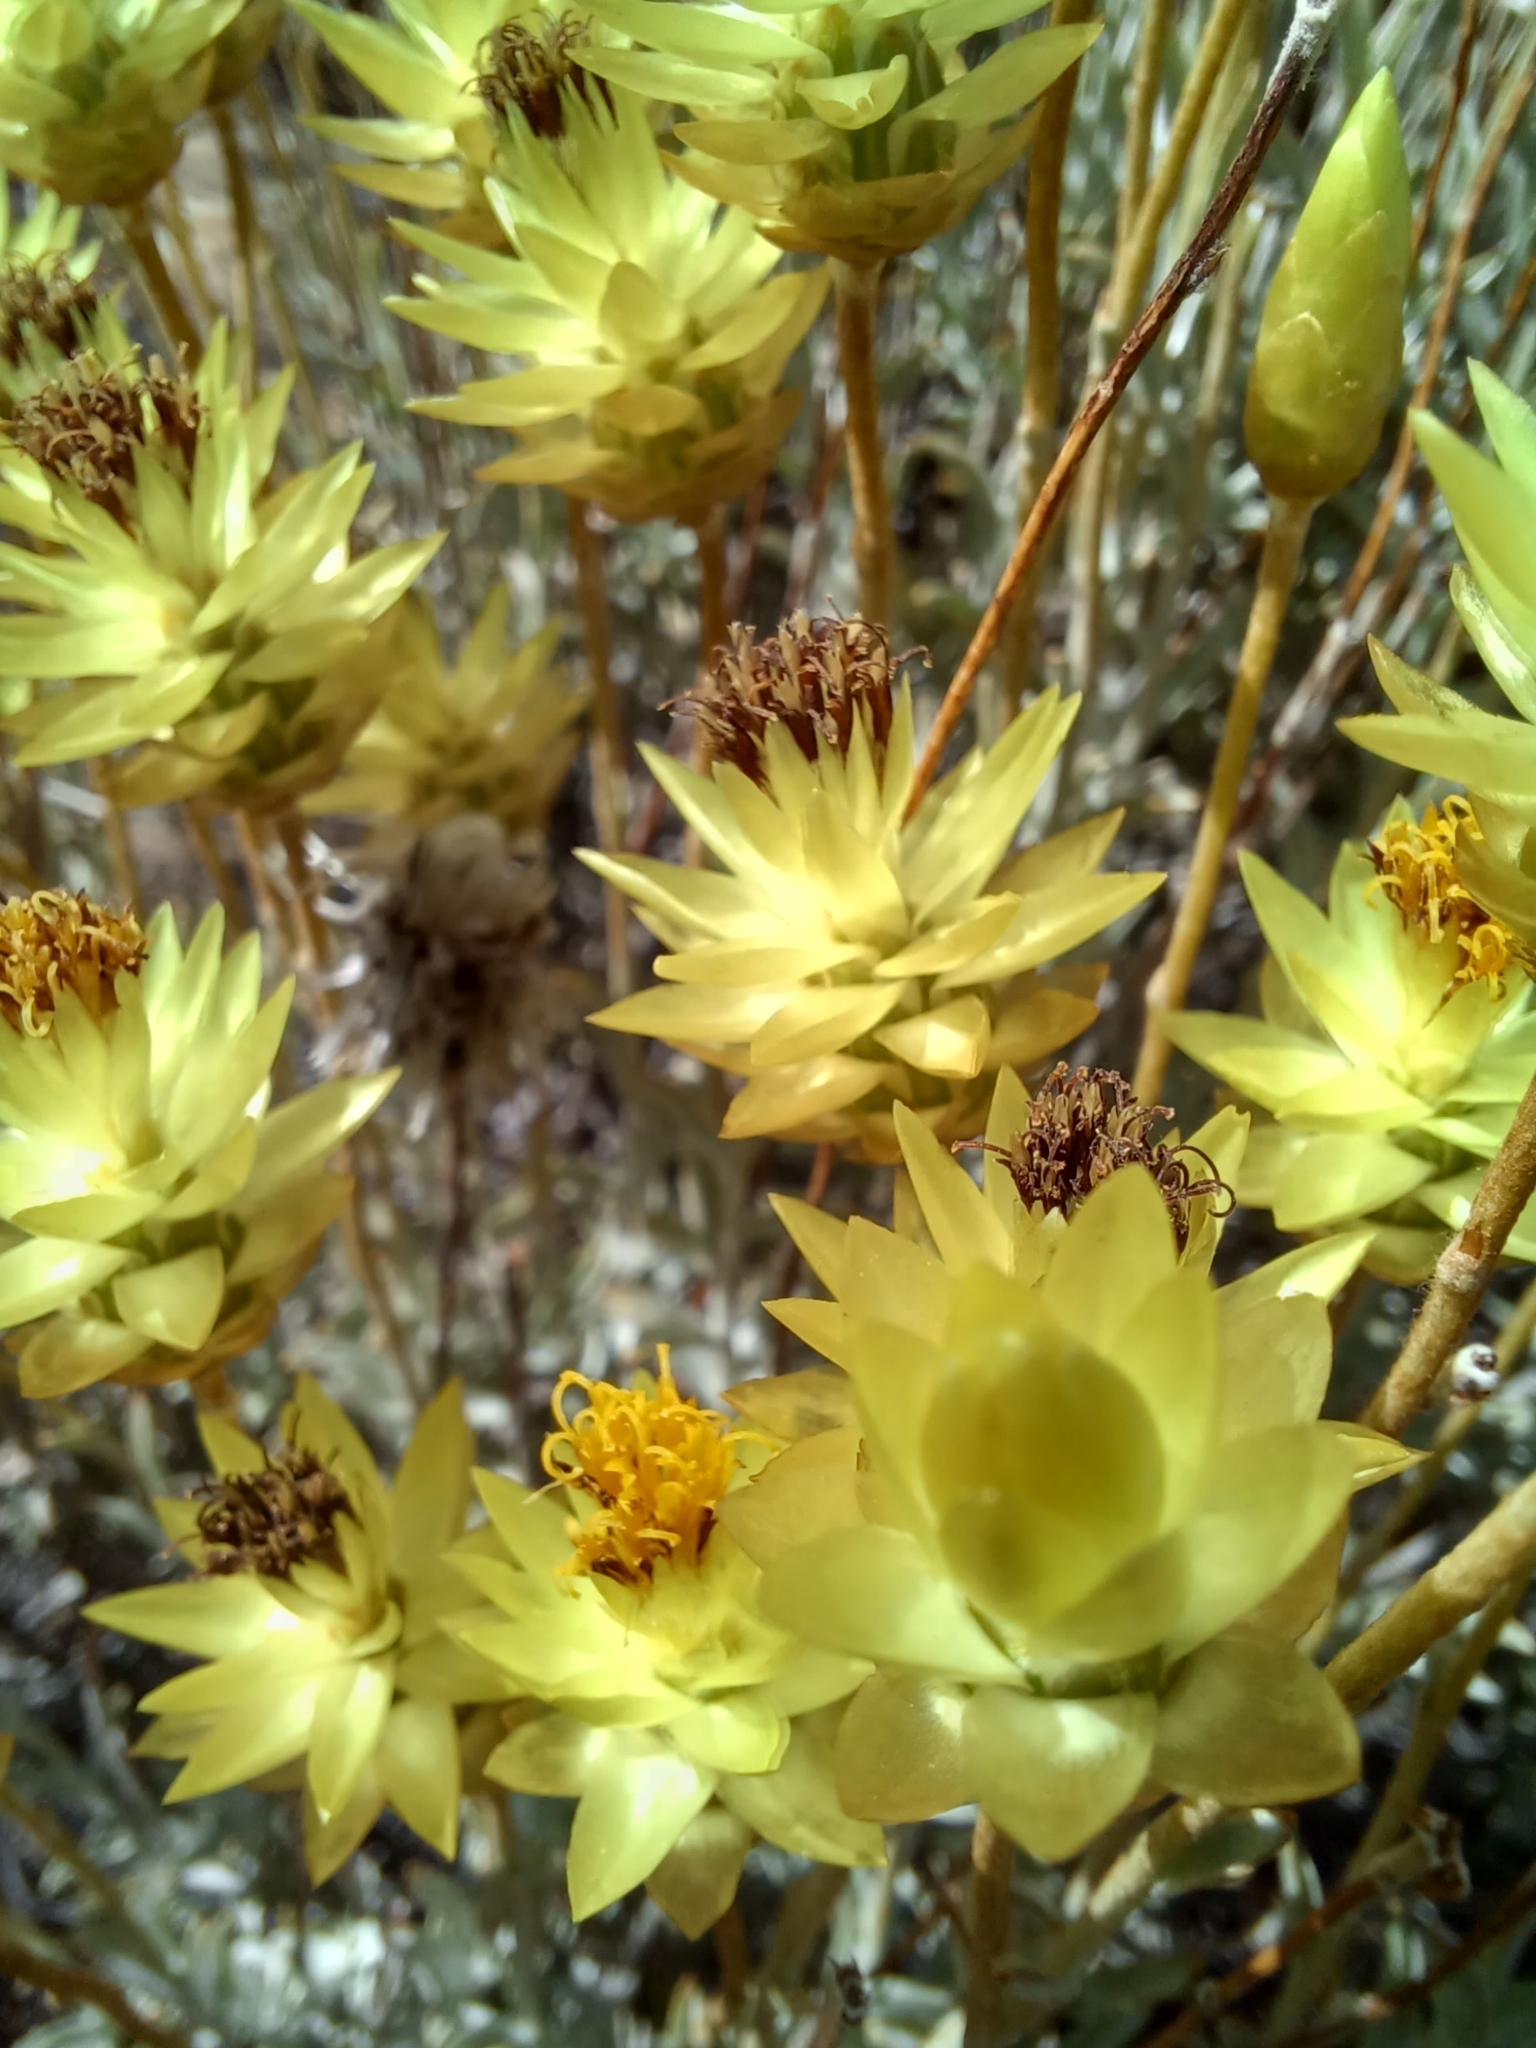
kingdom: Plantae
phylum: Tracheophyta
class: Magnoliopsida
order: Asterales
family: Asteraceae
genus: Syncarpha
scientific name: Syncarpha staehelina
